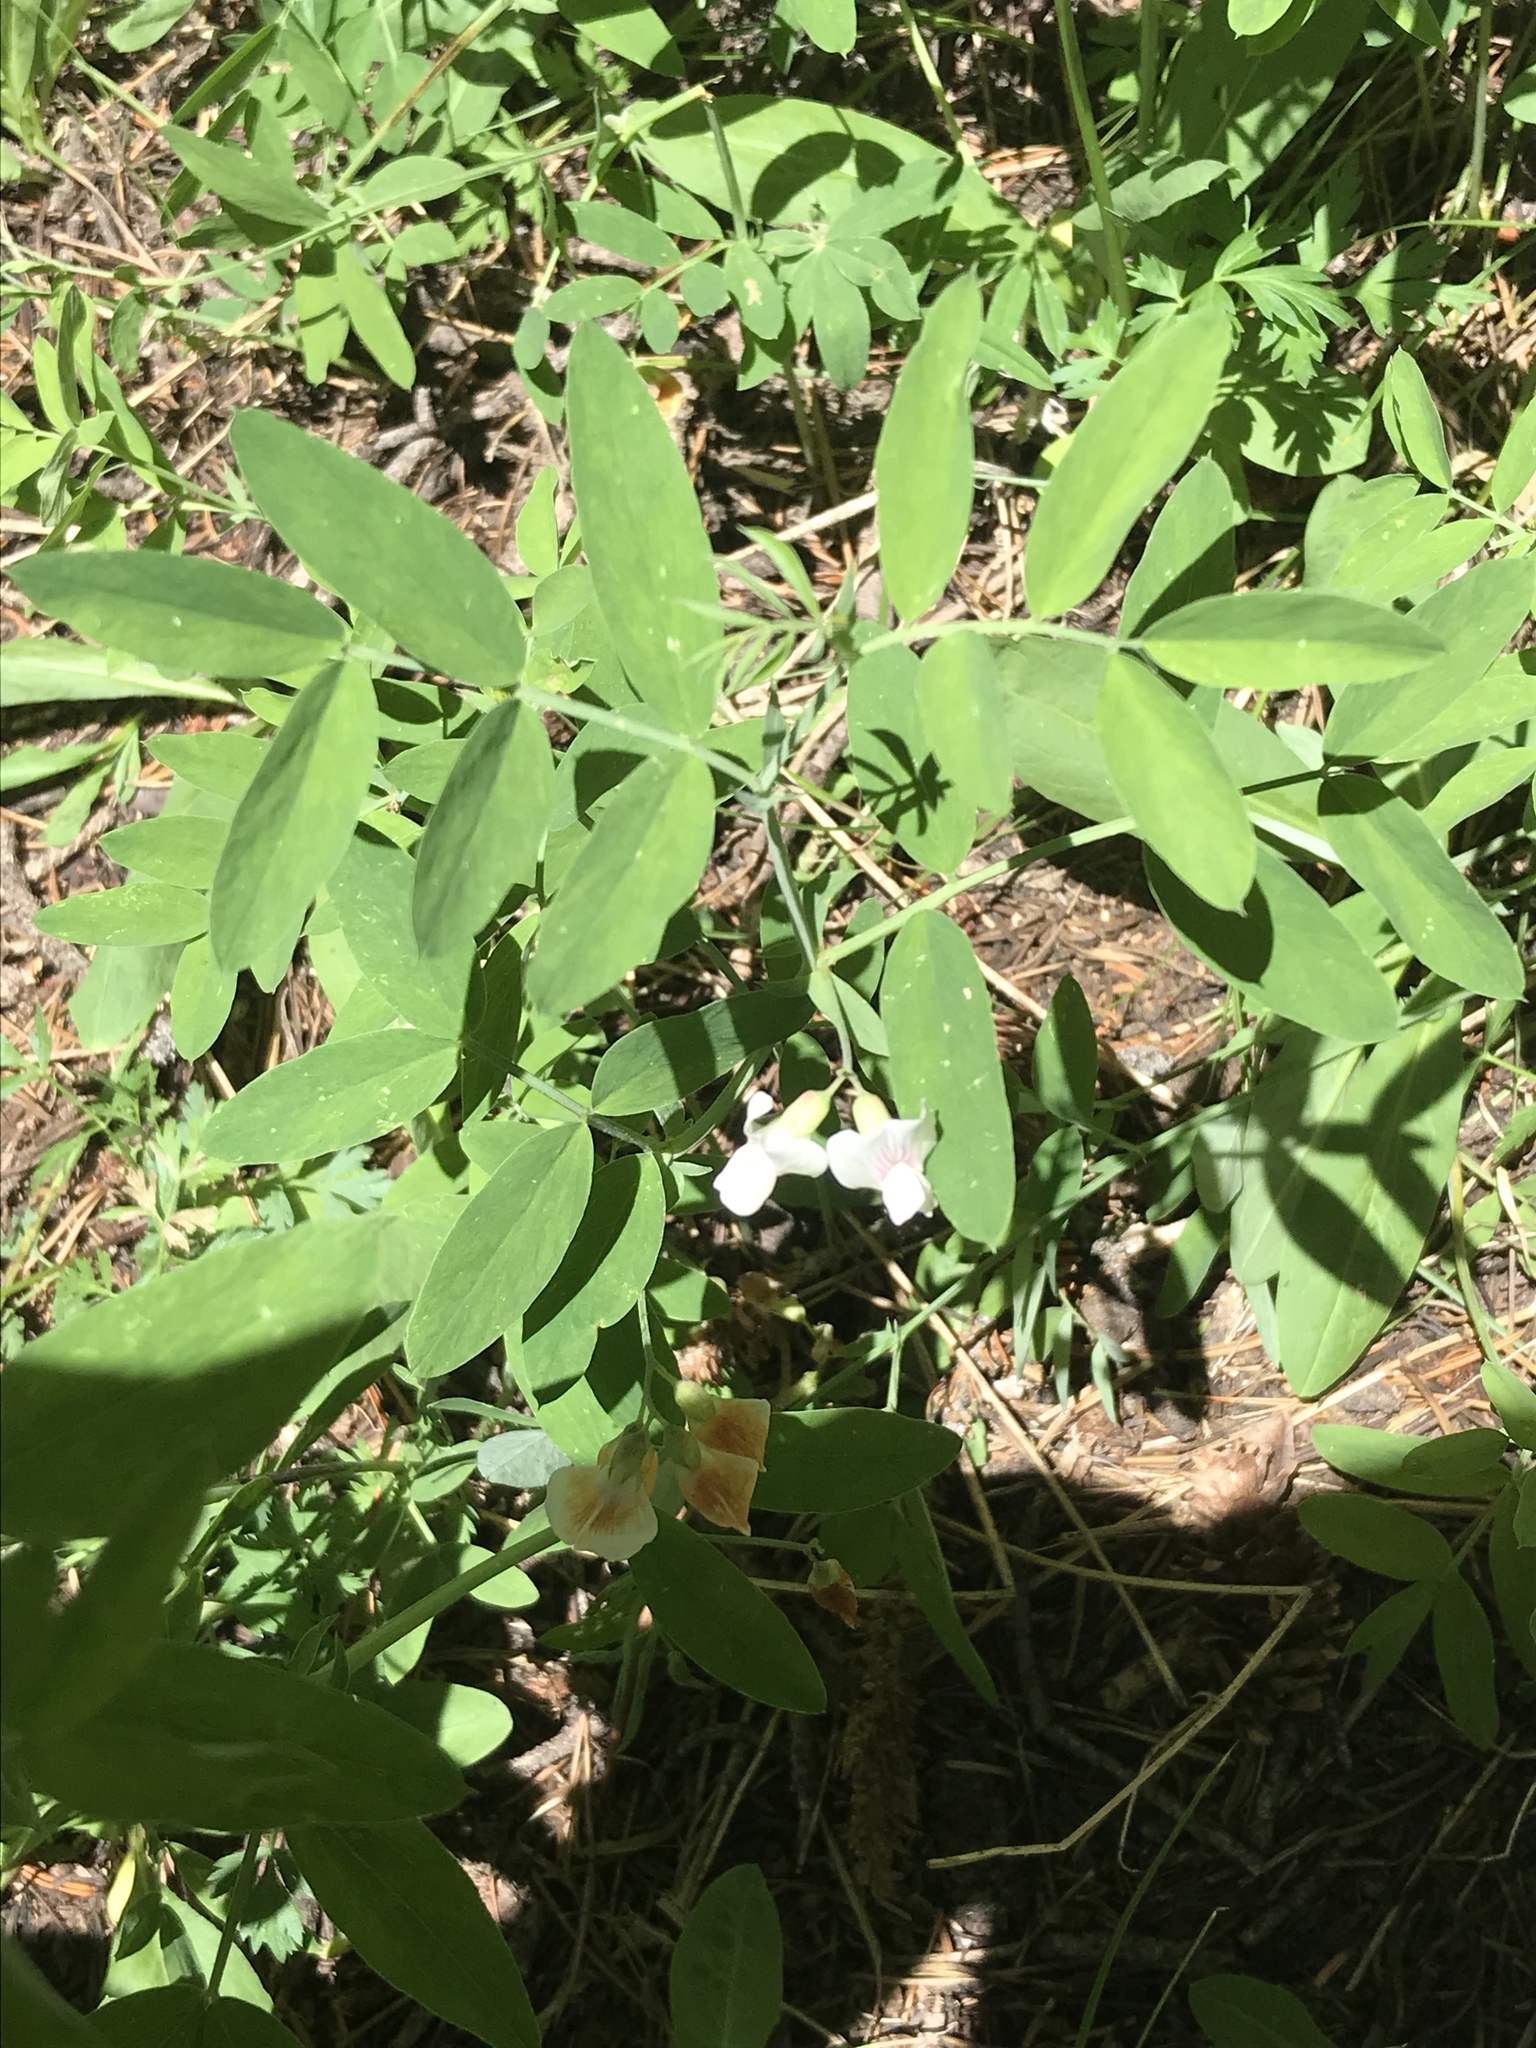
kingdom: Plantae
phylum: Tracheophyta
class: Magnoliopsida
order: Fabales
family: Fabaceae
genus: Lathyrus
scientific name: Lathyrus lanszwertii
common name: Lanszwert's vetchling
